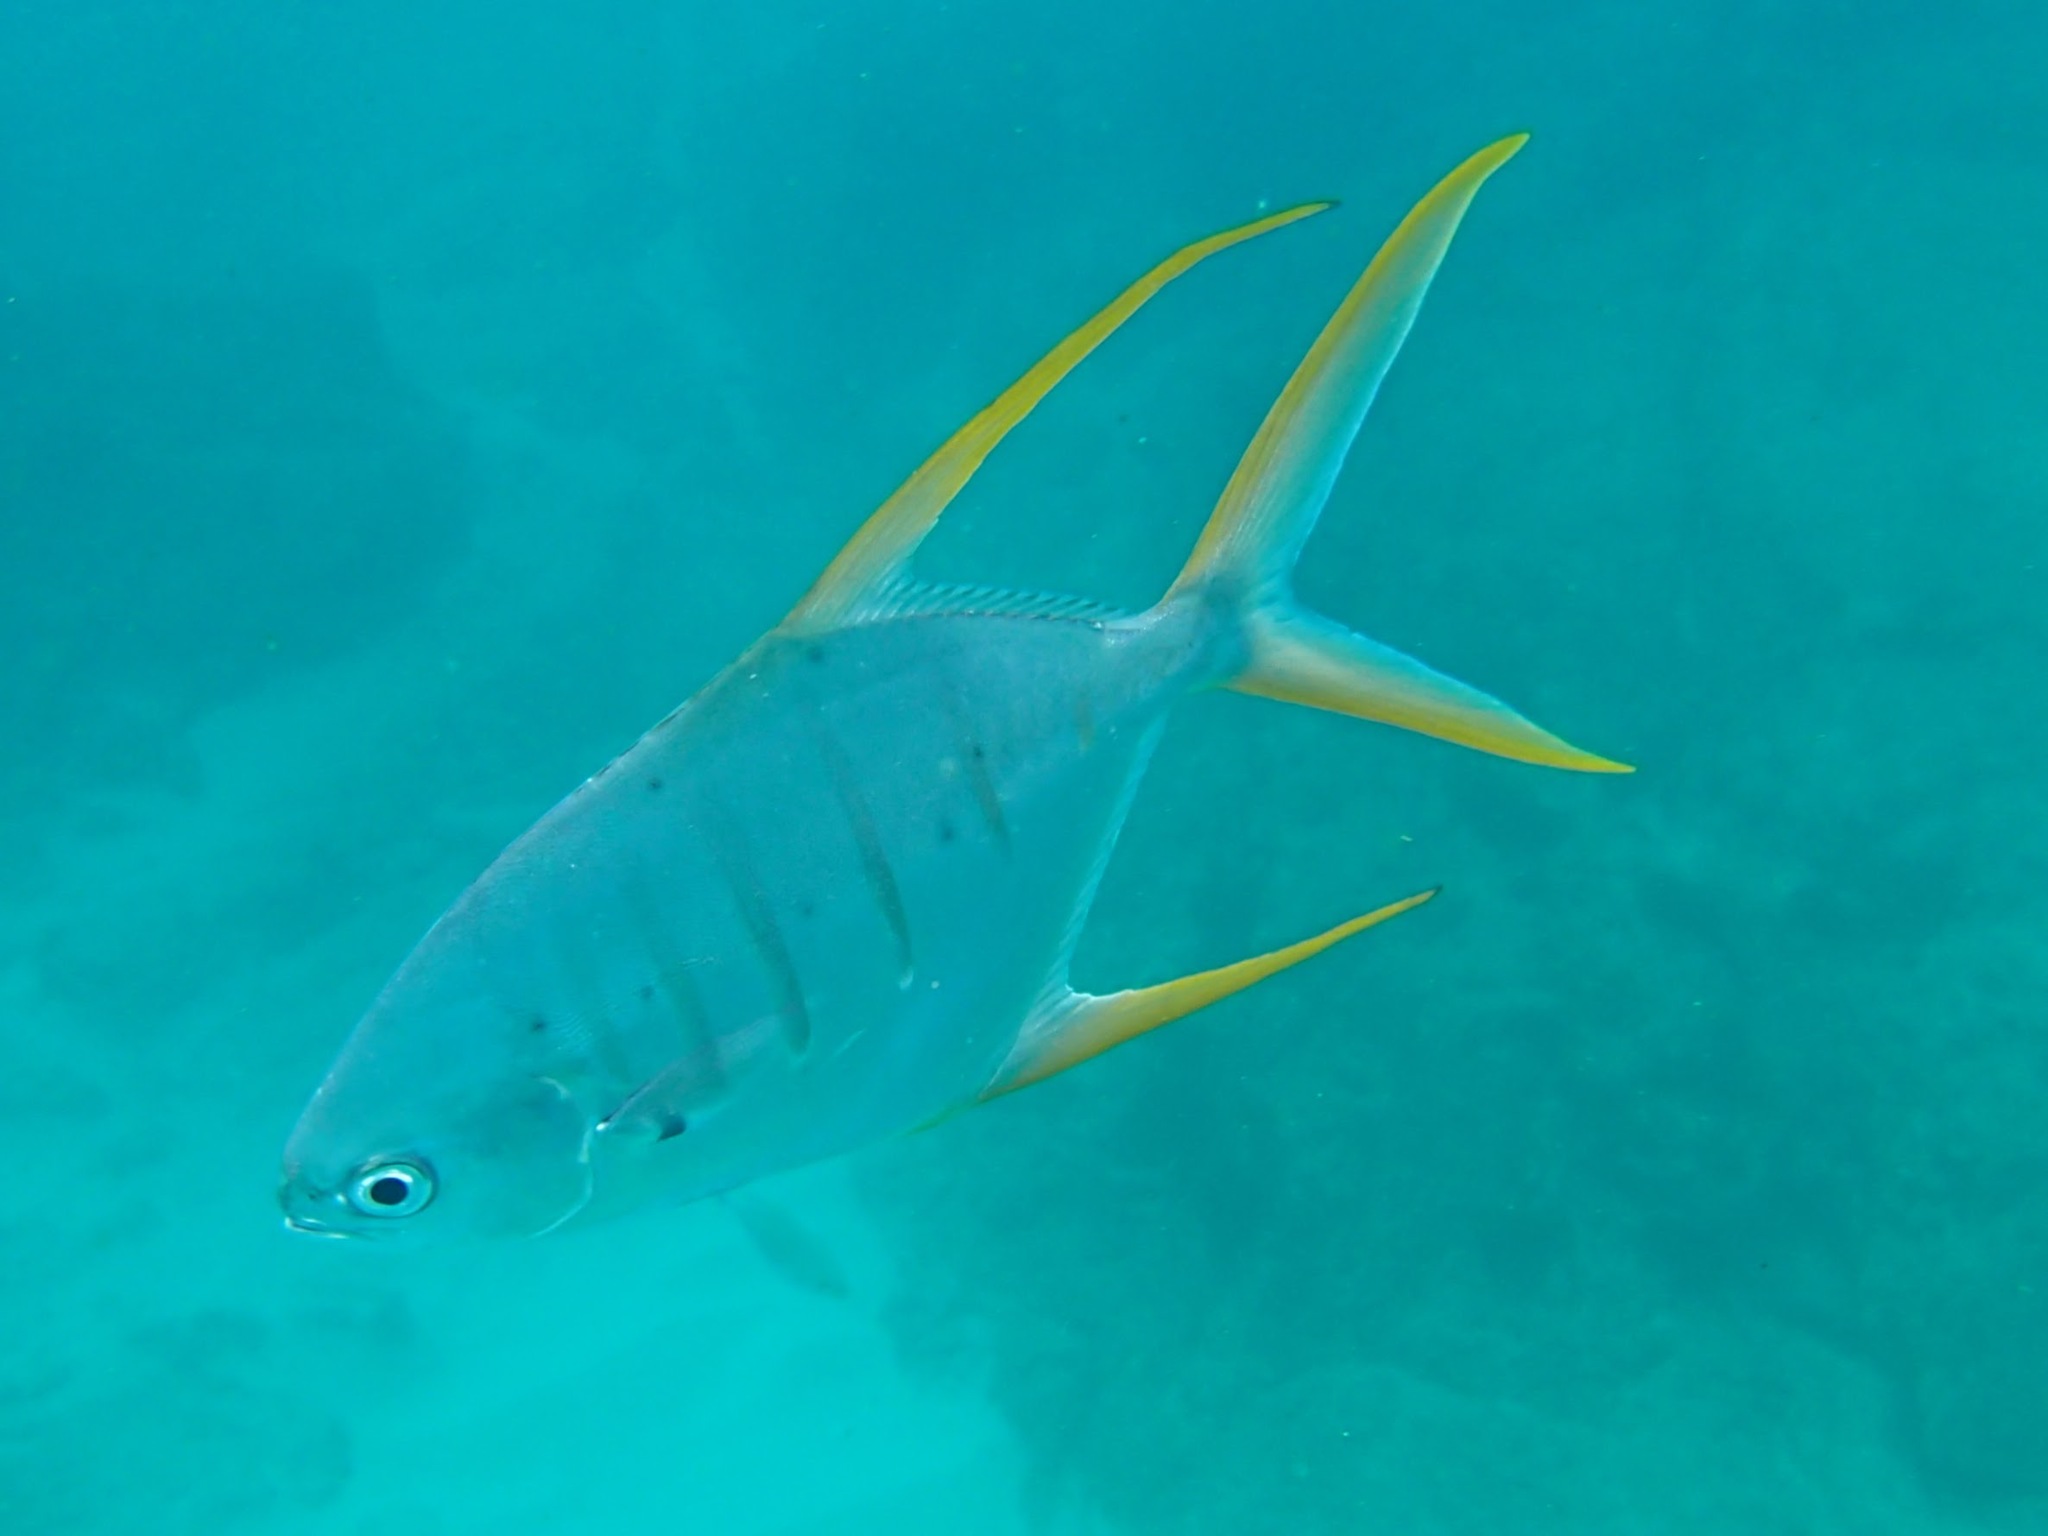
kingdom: Animalia
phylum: Chordata
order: Perciformes
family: Carangidae
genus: Trachinotus
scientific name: Trachinotus rhodopus
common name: Gafftopsail pompano
